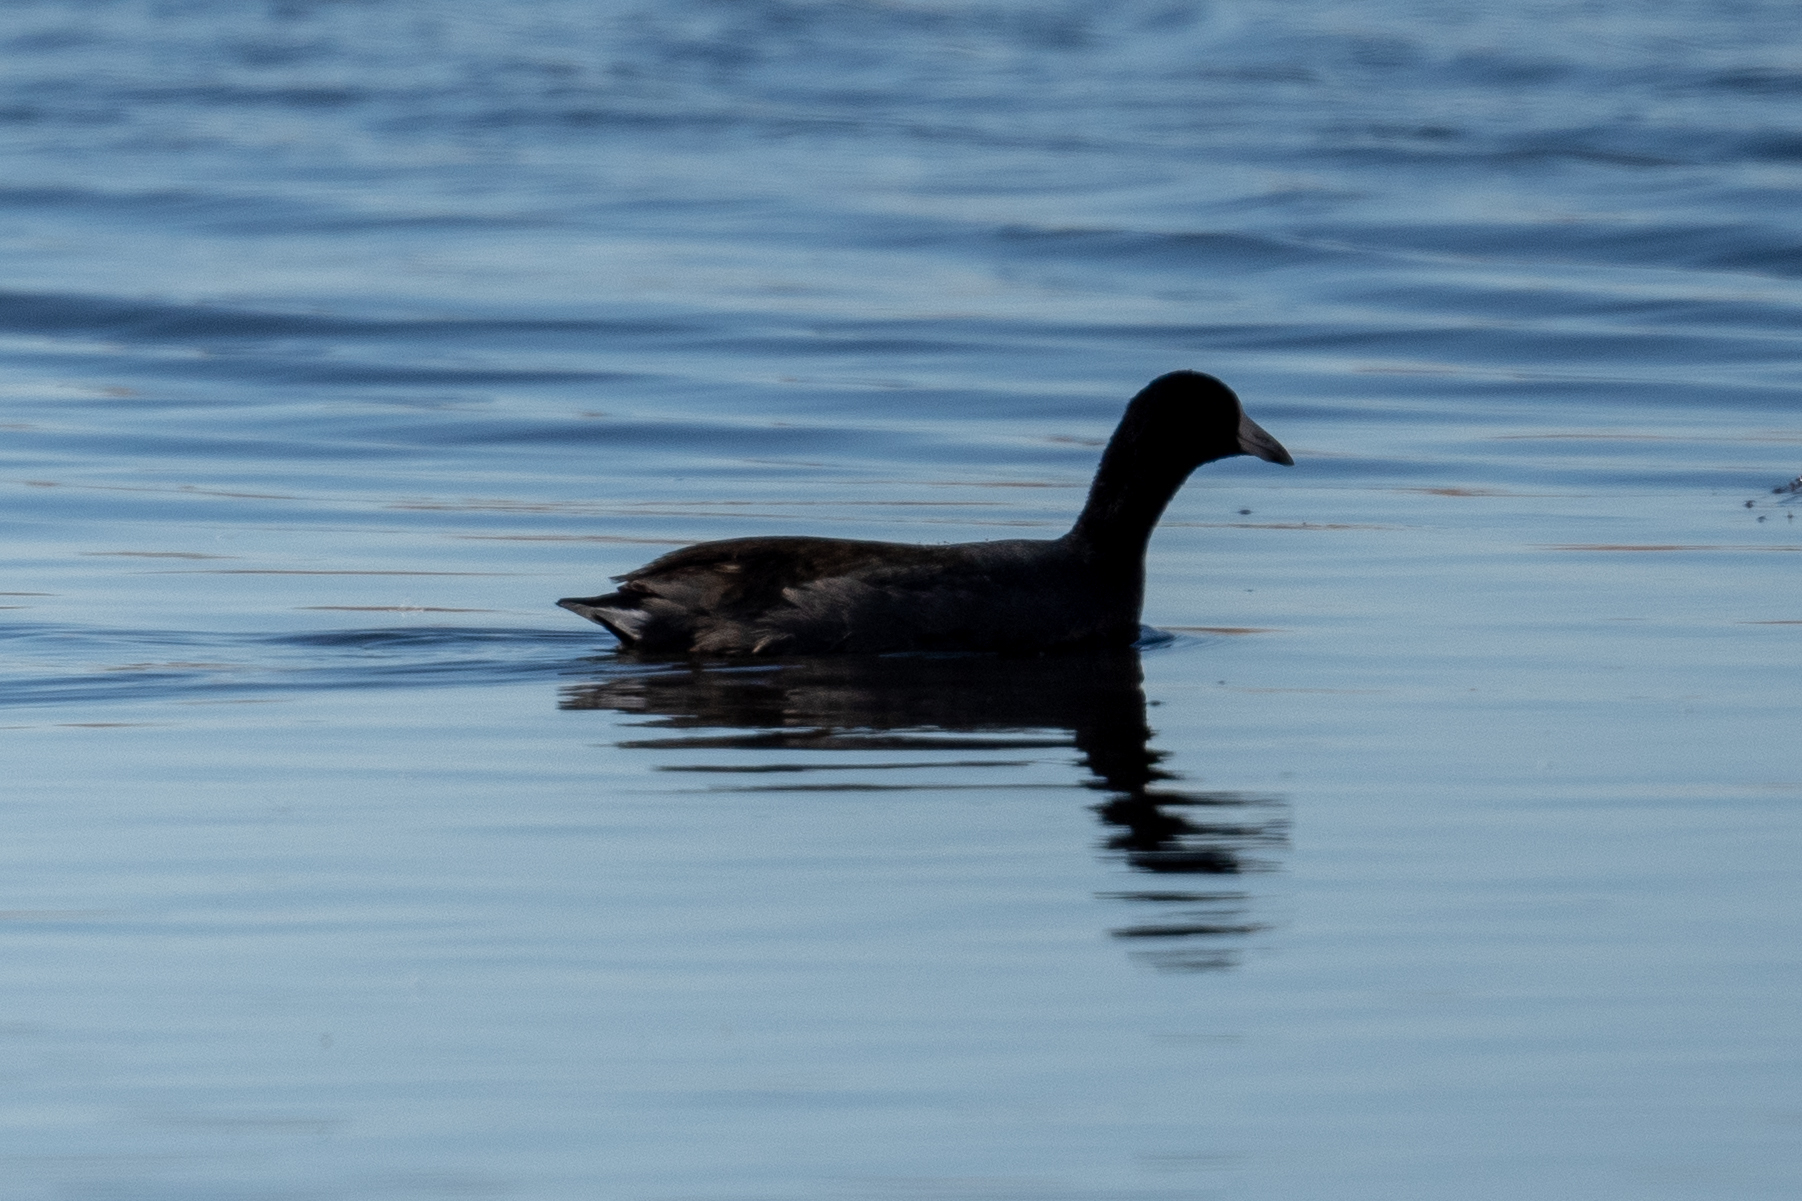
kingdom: Animalia
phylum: Chordata
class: Aves
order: Gruiformes
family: Rallidae
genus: Fulica
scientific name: Fulica americana
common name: American coot
